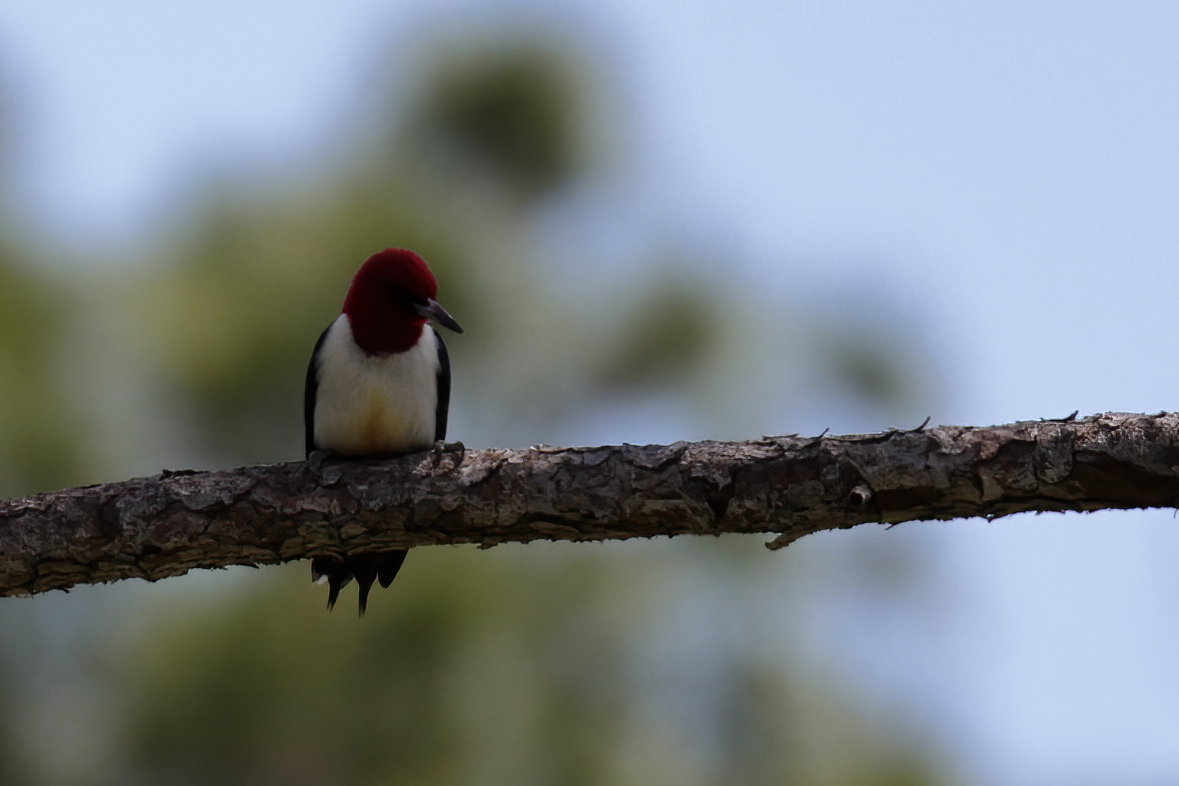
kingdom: Animalia
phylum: Chordata
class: Aves
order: Piciformes
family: Picidae
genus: Melanerpes
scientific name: Melanerpes erythrocephalus
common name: Red-headed woodpecker
